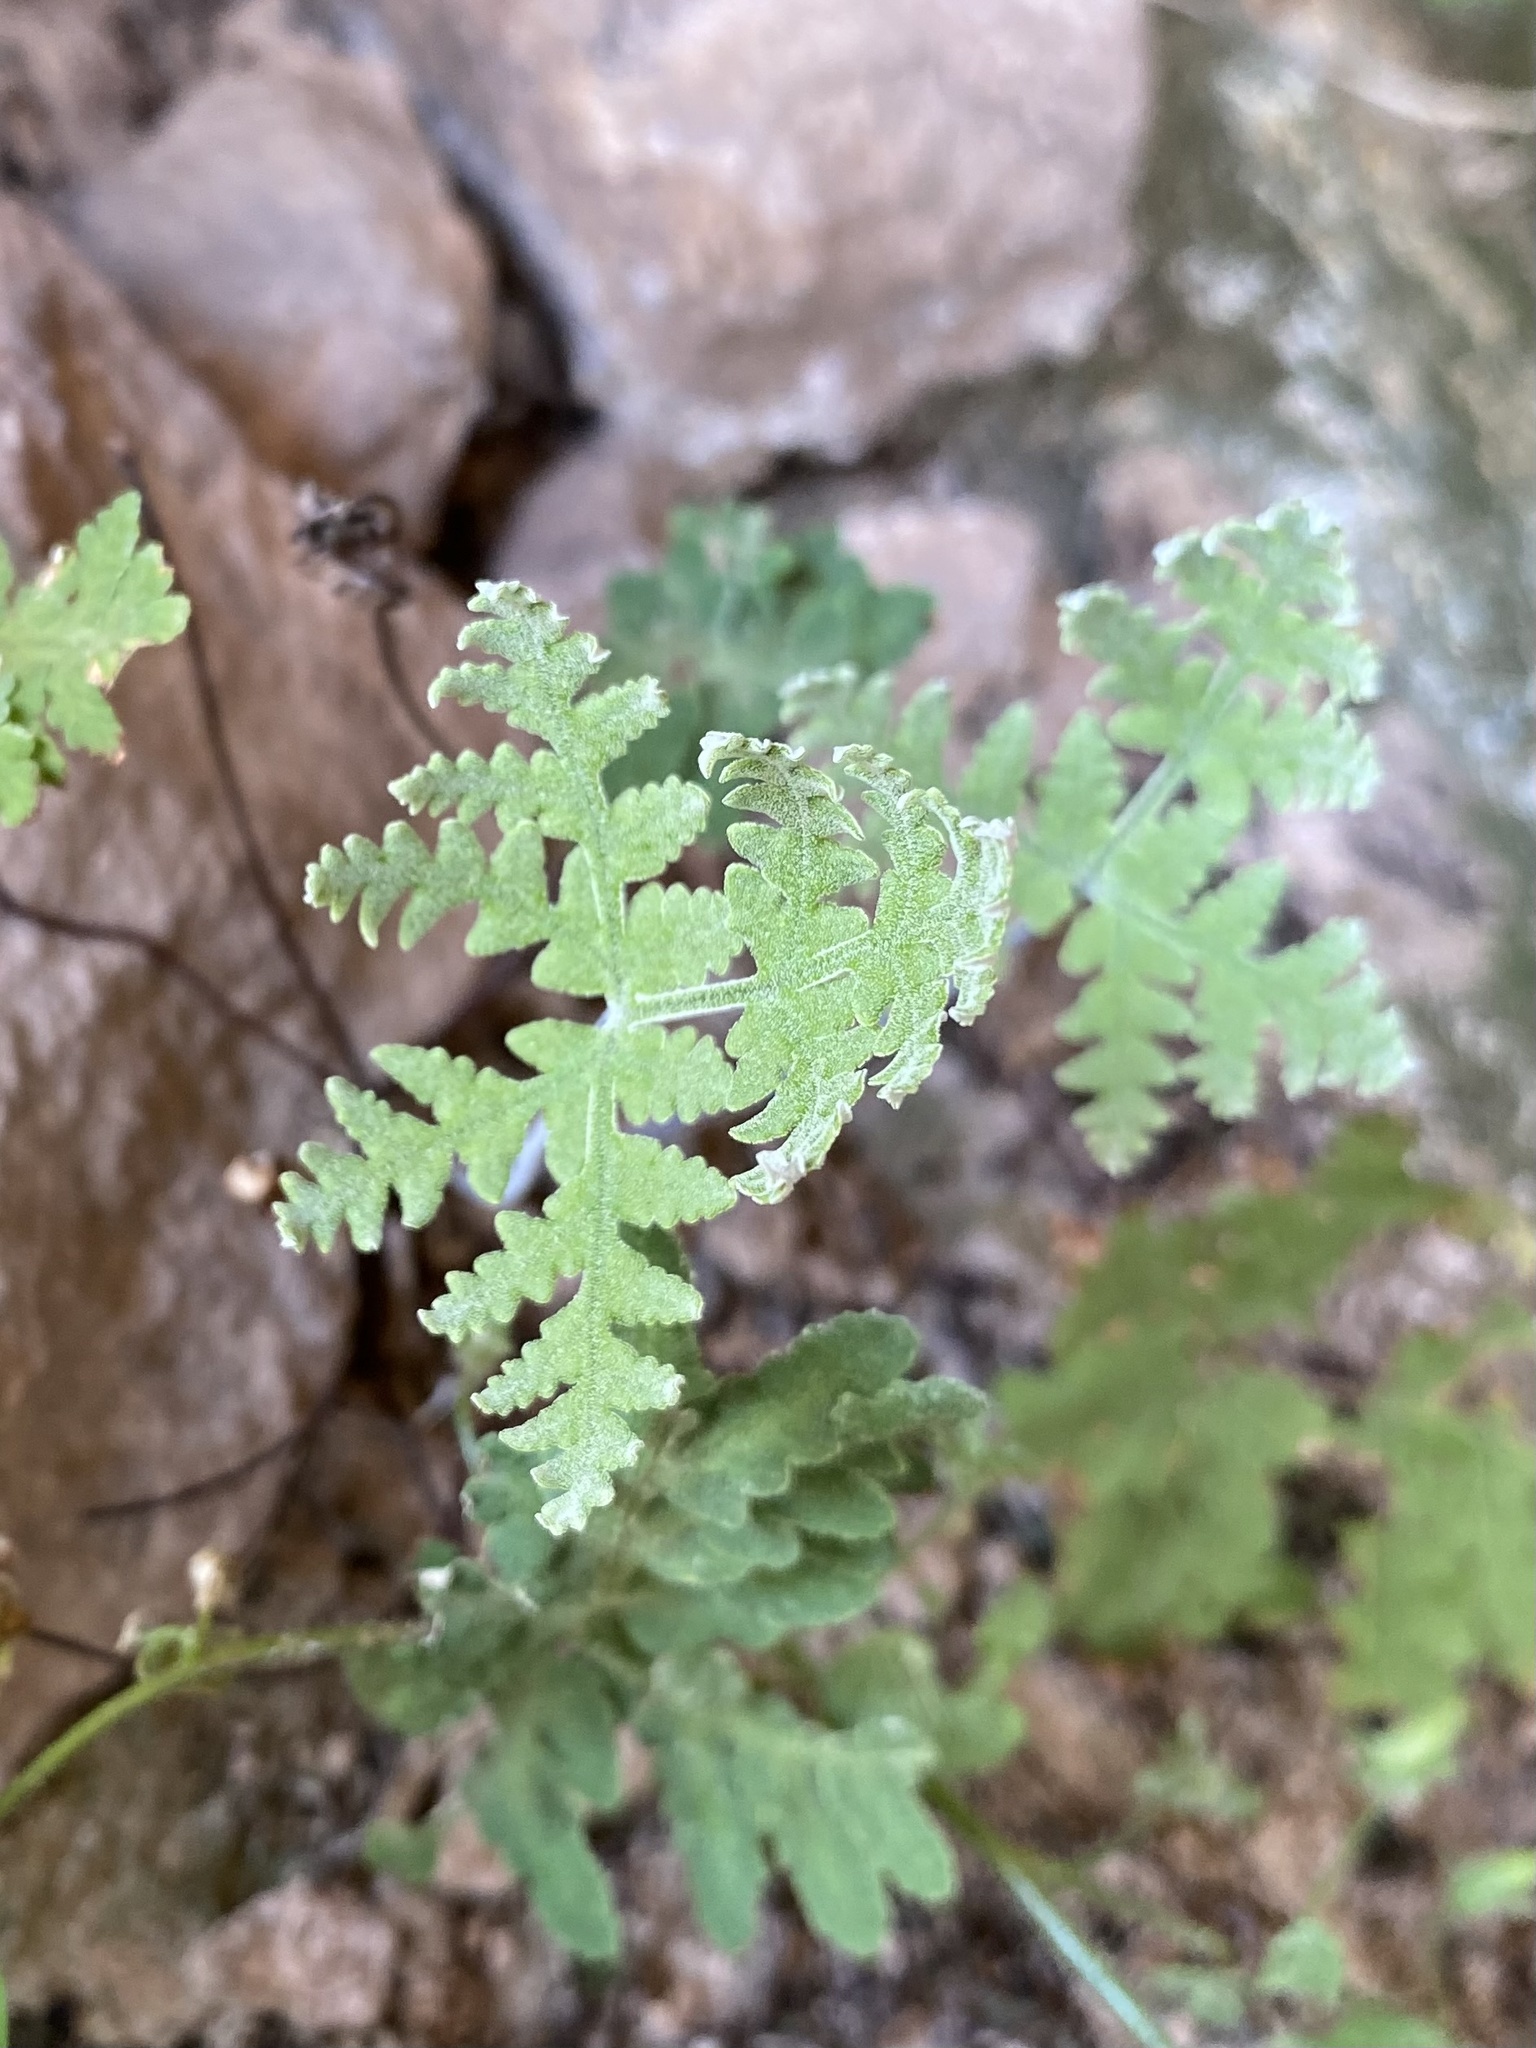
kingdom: Plantae
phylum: Tracheophyta
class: Polypodiopsida
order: Polypodiales
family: Pteridaceae
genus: Pentagramma
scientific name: Pentagramma maxonii
